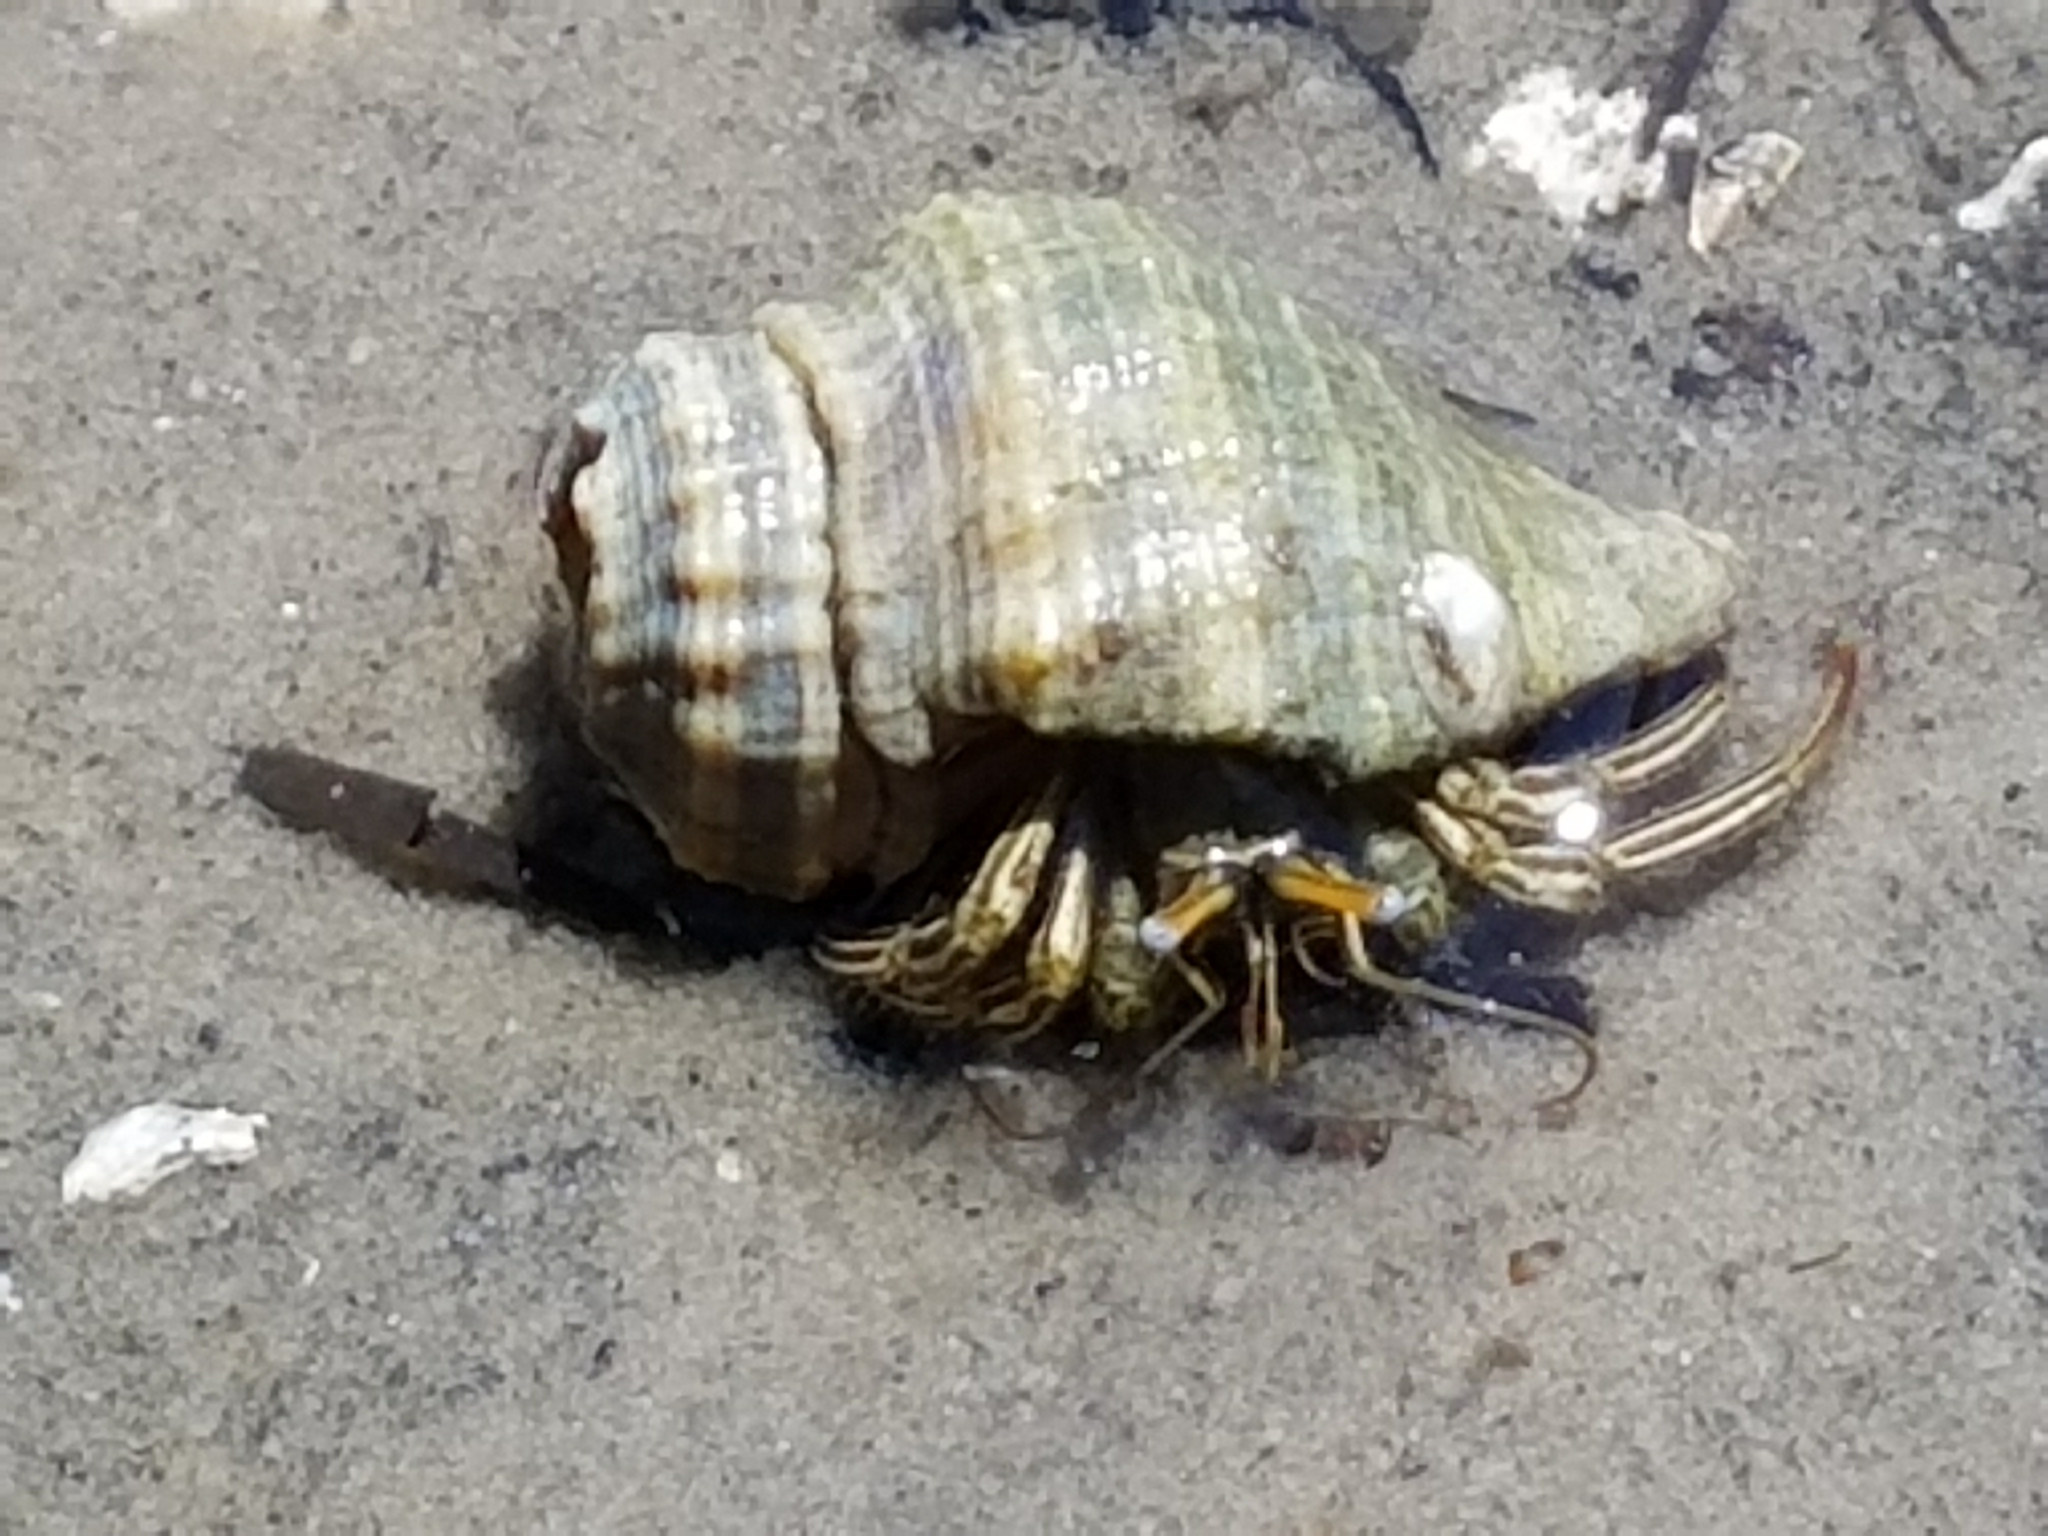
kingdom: Animalia
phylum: Arthropoda
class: Malacostraca
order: Decapoda
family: Diogenidae
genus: Clibanarius
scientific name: Clibanarius vittatus
